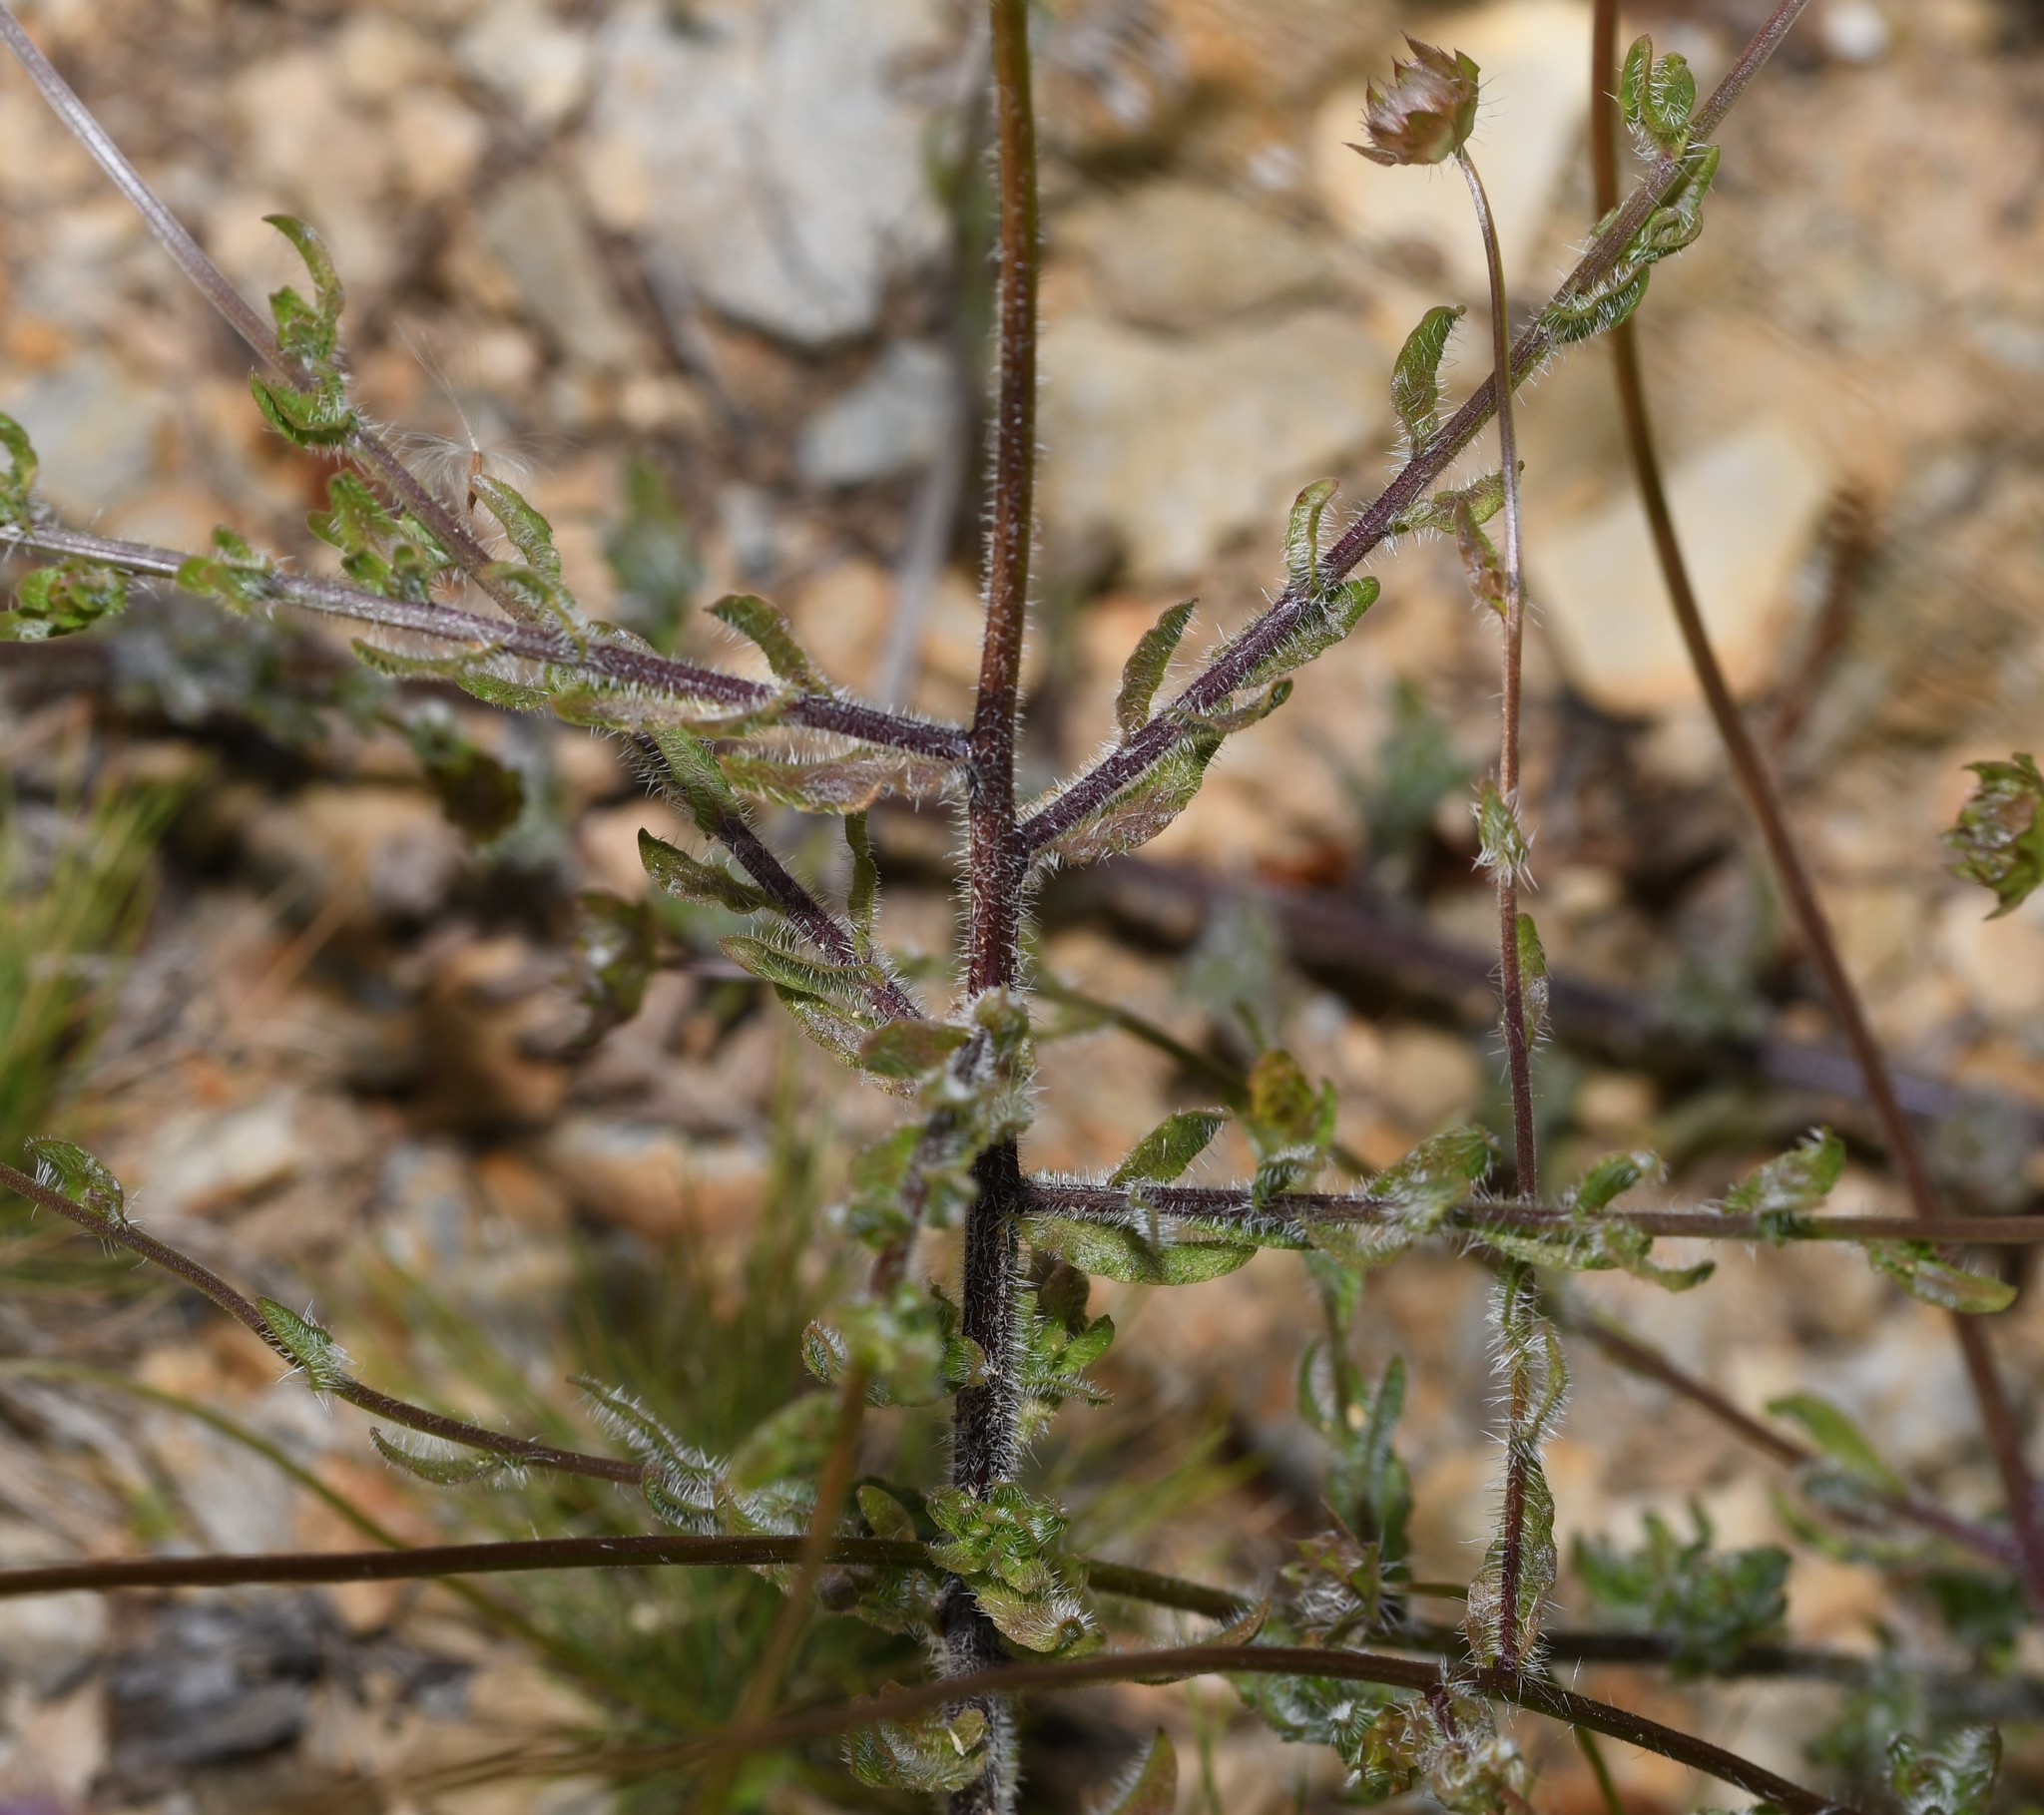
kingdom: Plantae
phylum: Tracheophyta
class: Magnoliopsida
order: Asterales
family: Campanulaceae
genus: Jasione
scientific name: Jasione montana
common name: Sheep's-bit
